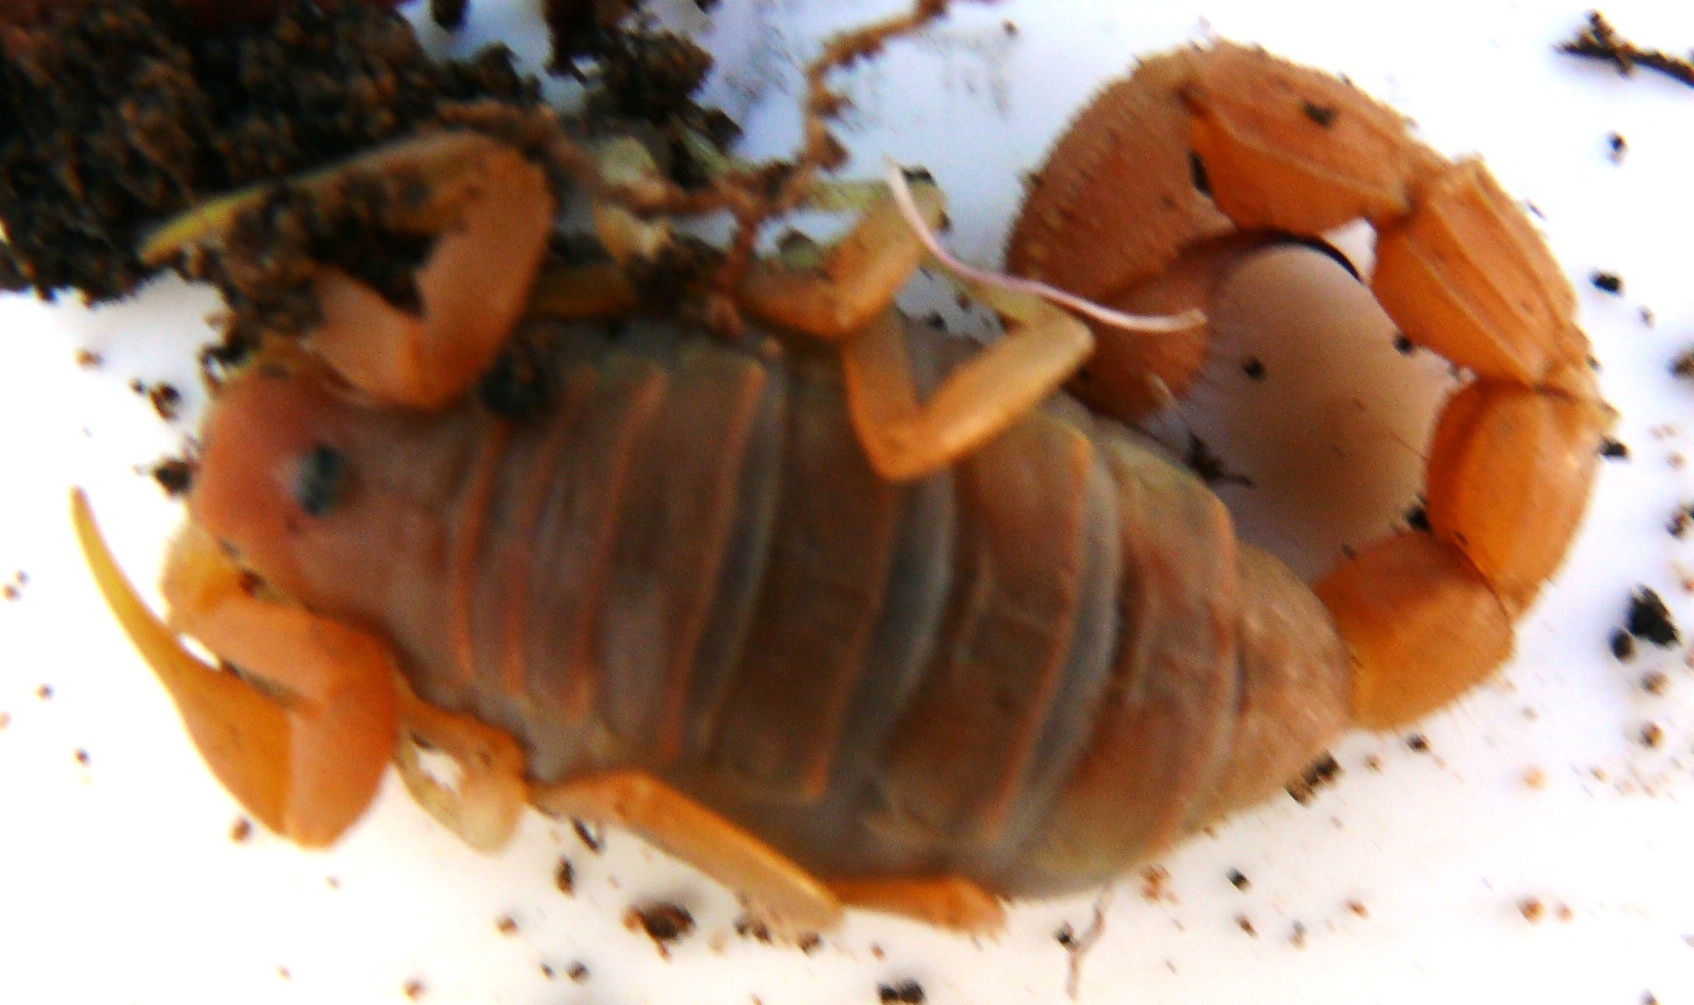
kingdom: Animalia
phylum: Arthropoda
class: Arachnida
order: Scorpiones
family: Buthidae
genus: Parabuthus
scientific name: Parabuthus capensis
